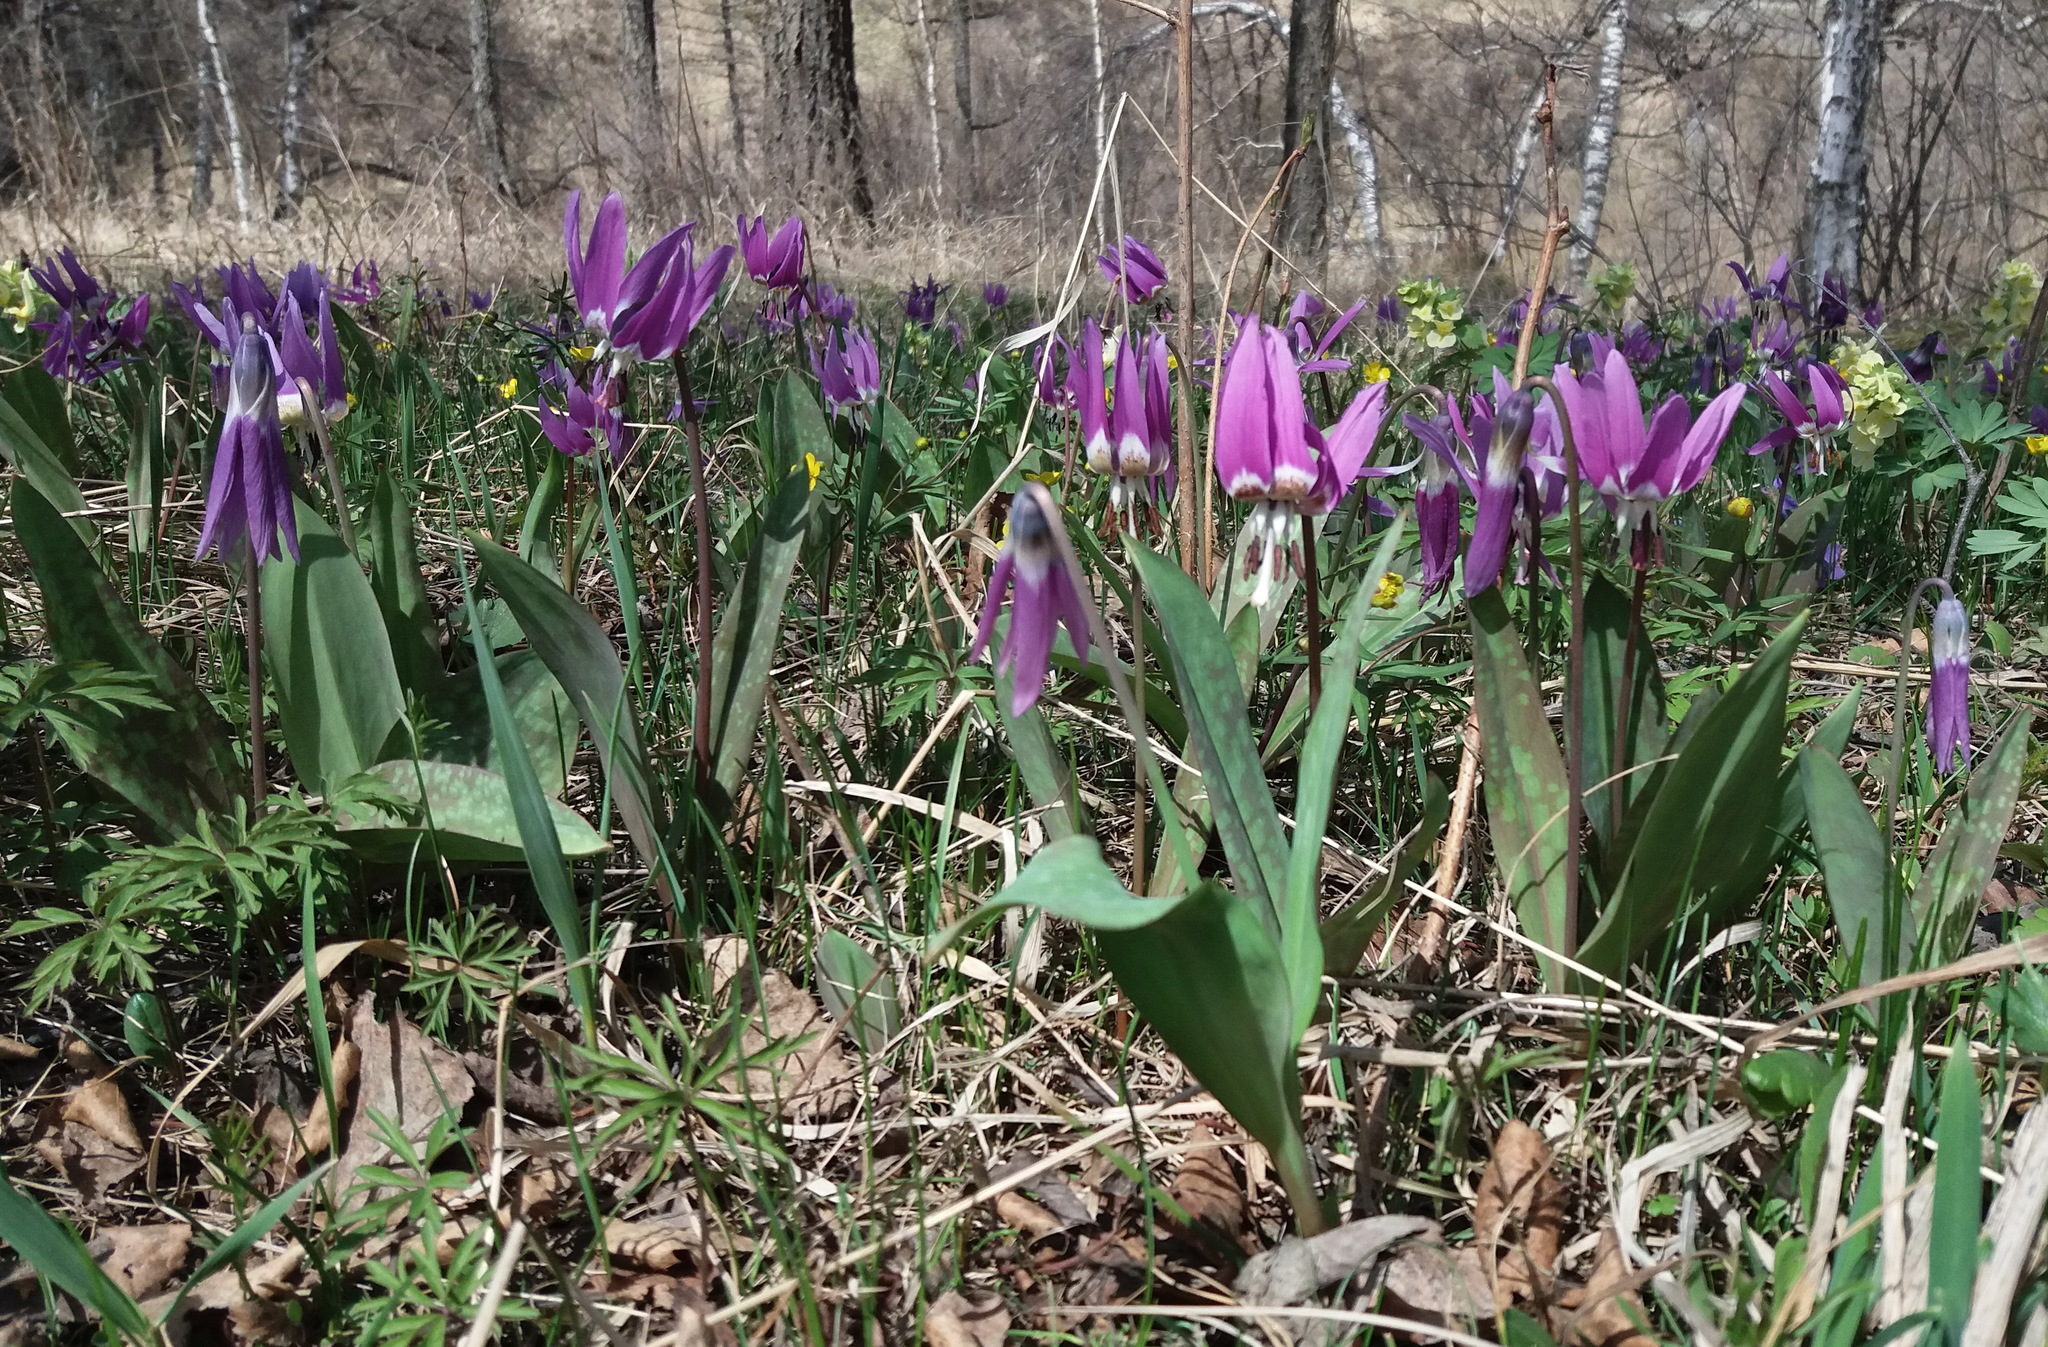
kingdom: Plantae
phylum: Tracheophyta
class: Liliopsida
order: Liliales
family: Liliaceae
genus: Erythronium
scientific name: Erythronium sulevii
